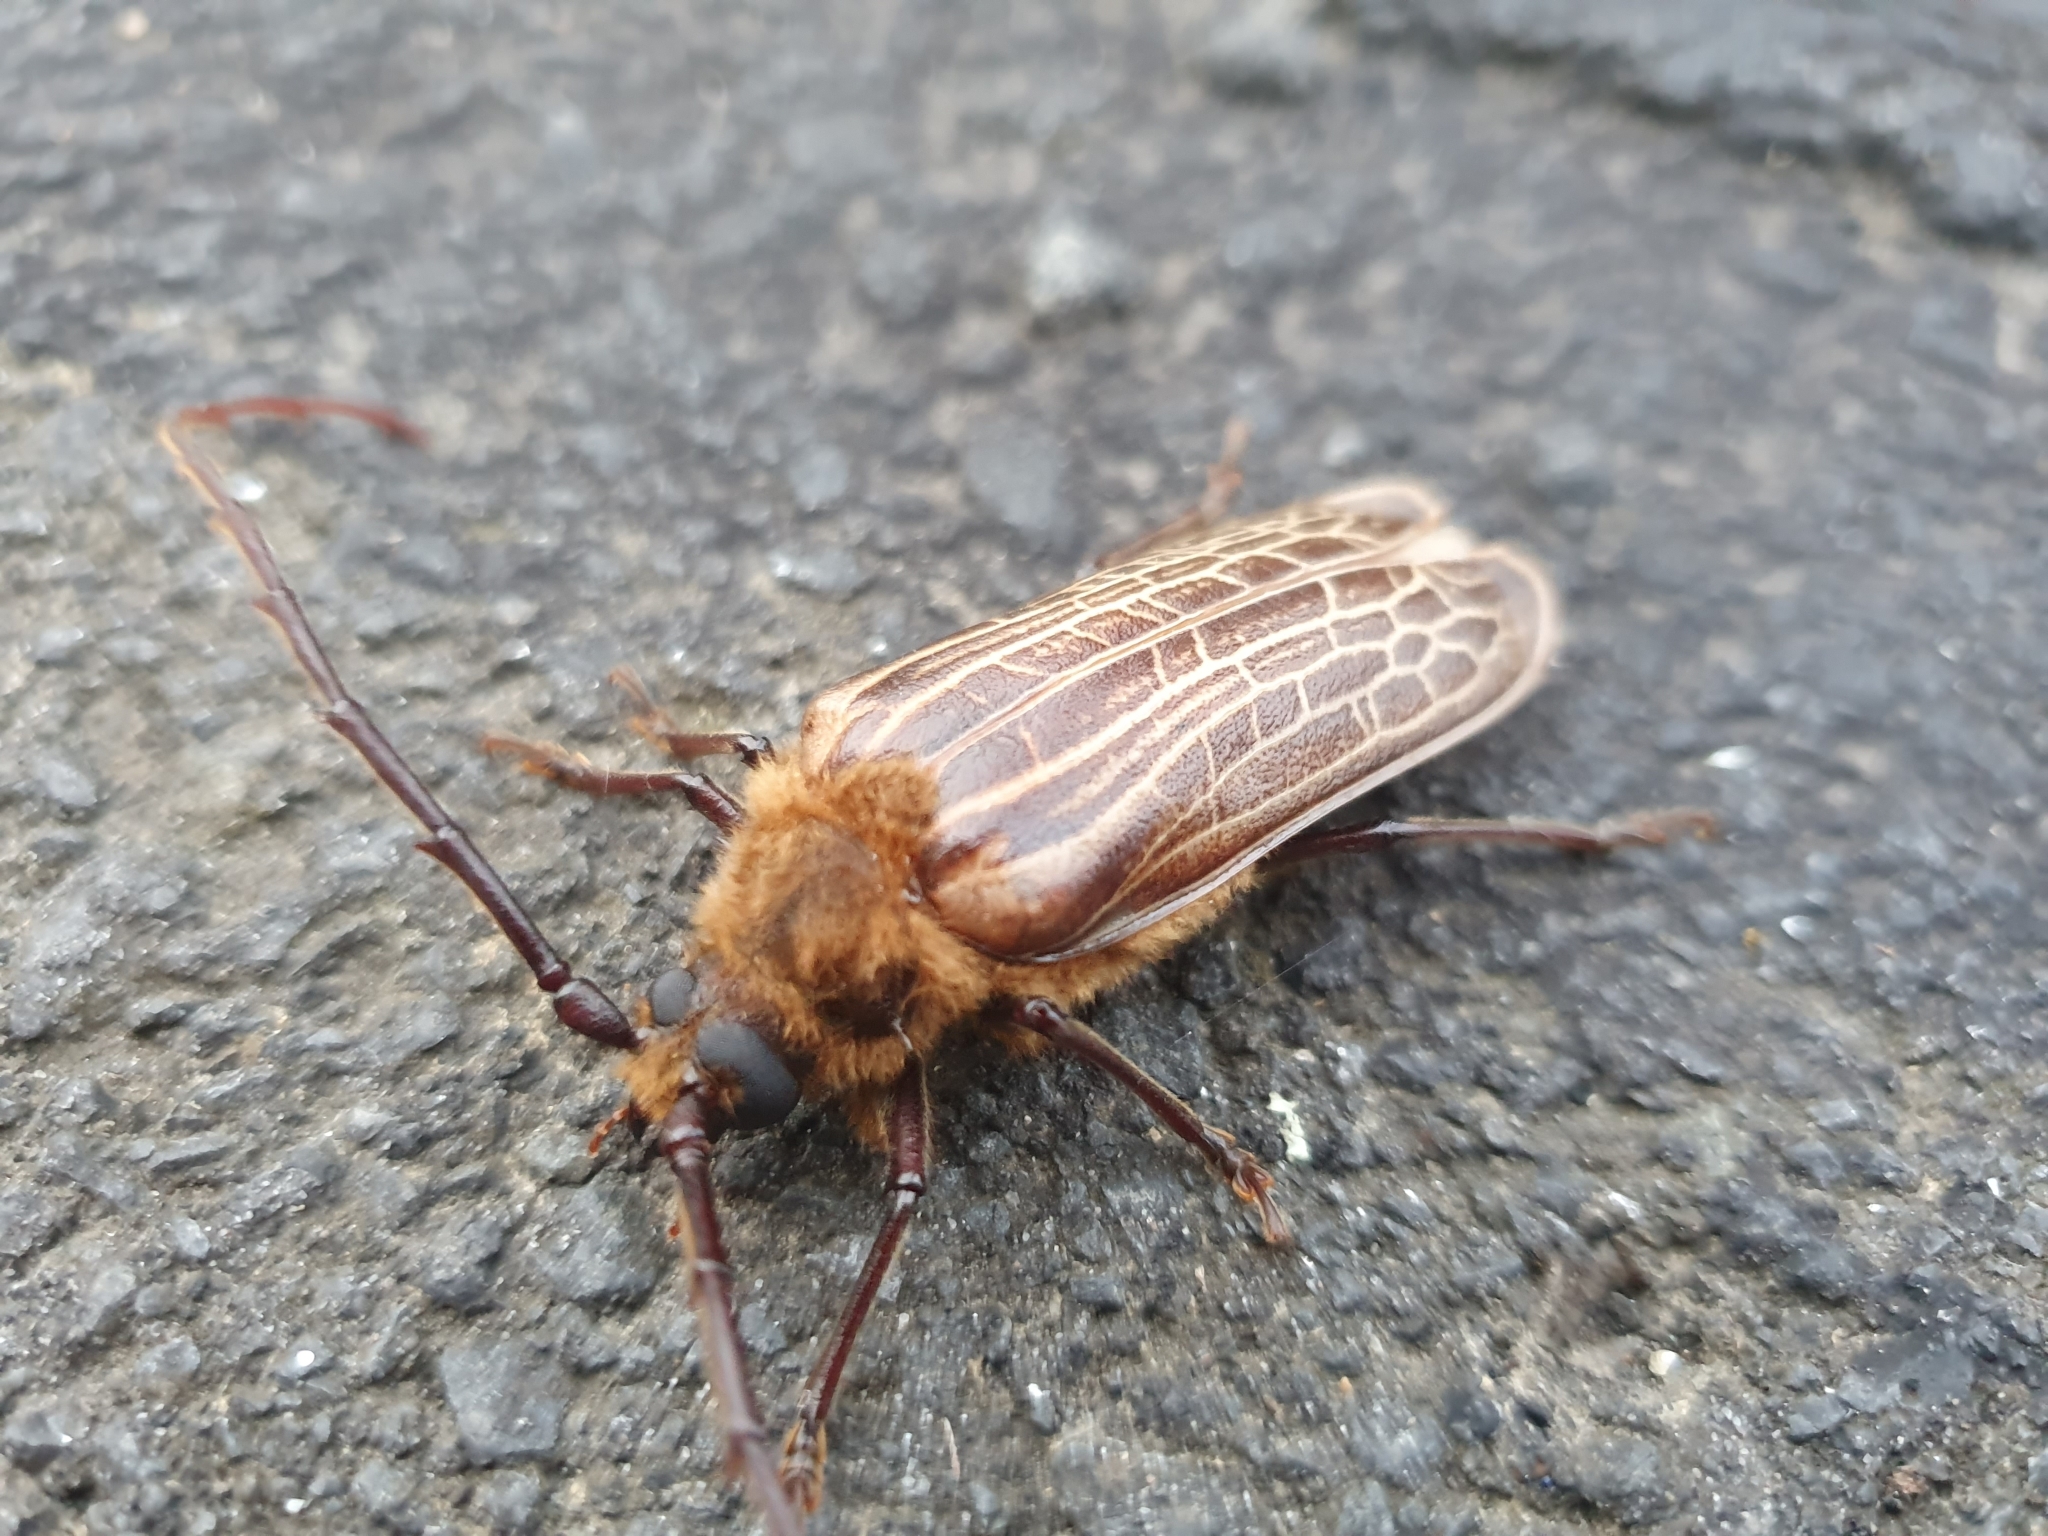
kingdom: Animalia
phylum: Arthropoda
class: Insecta
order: Coleoptera
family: Cerambycidae
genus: Prionoplus
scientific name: Prionoplus reticularis
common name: Huhu beetle
